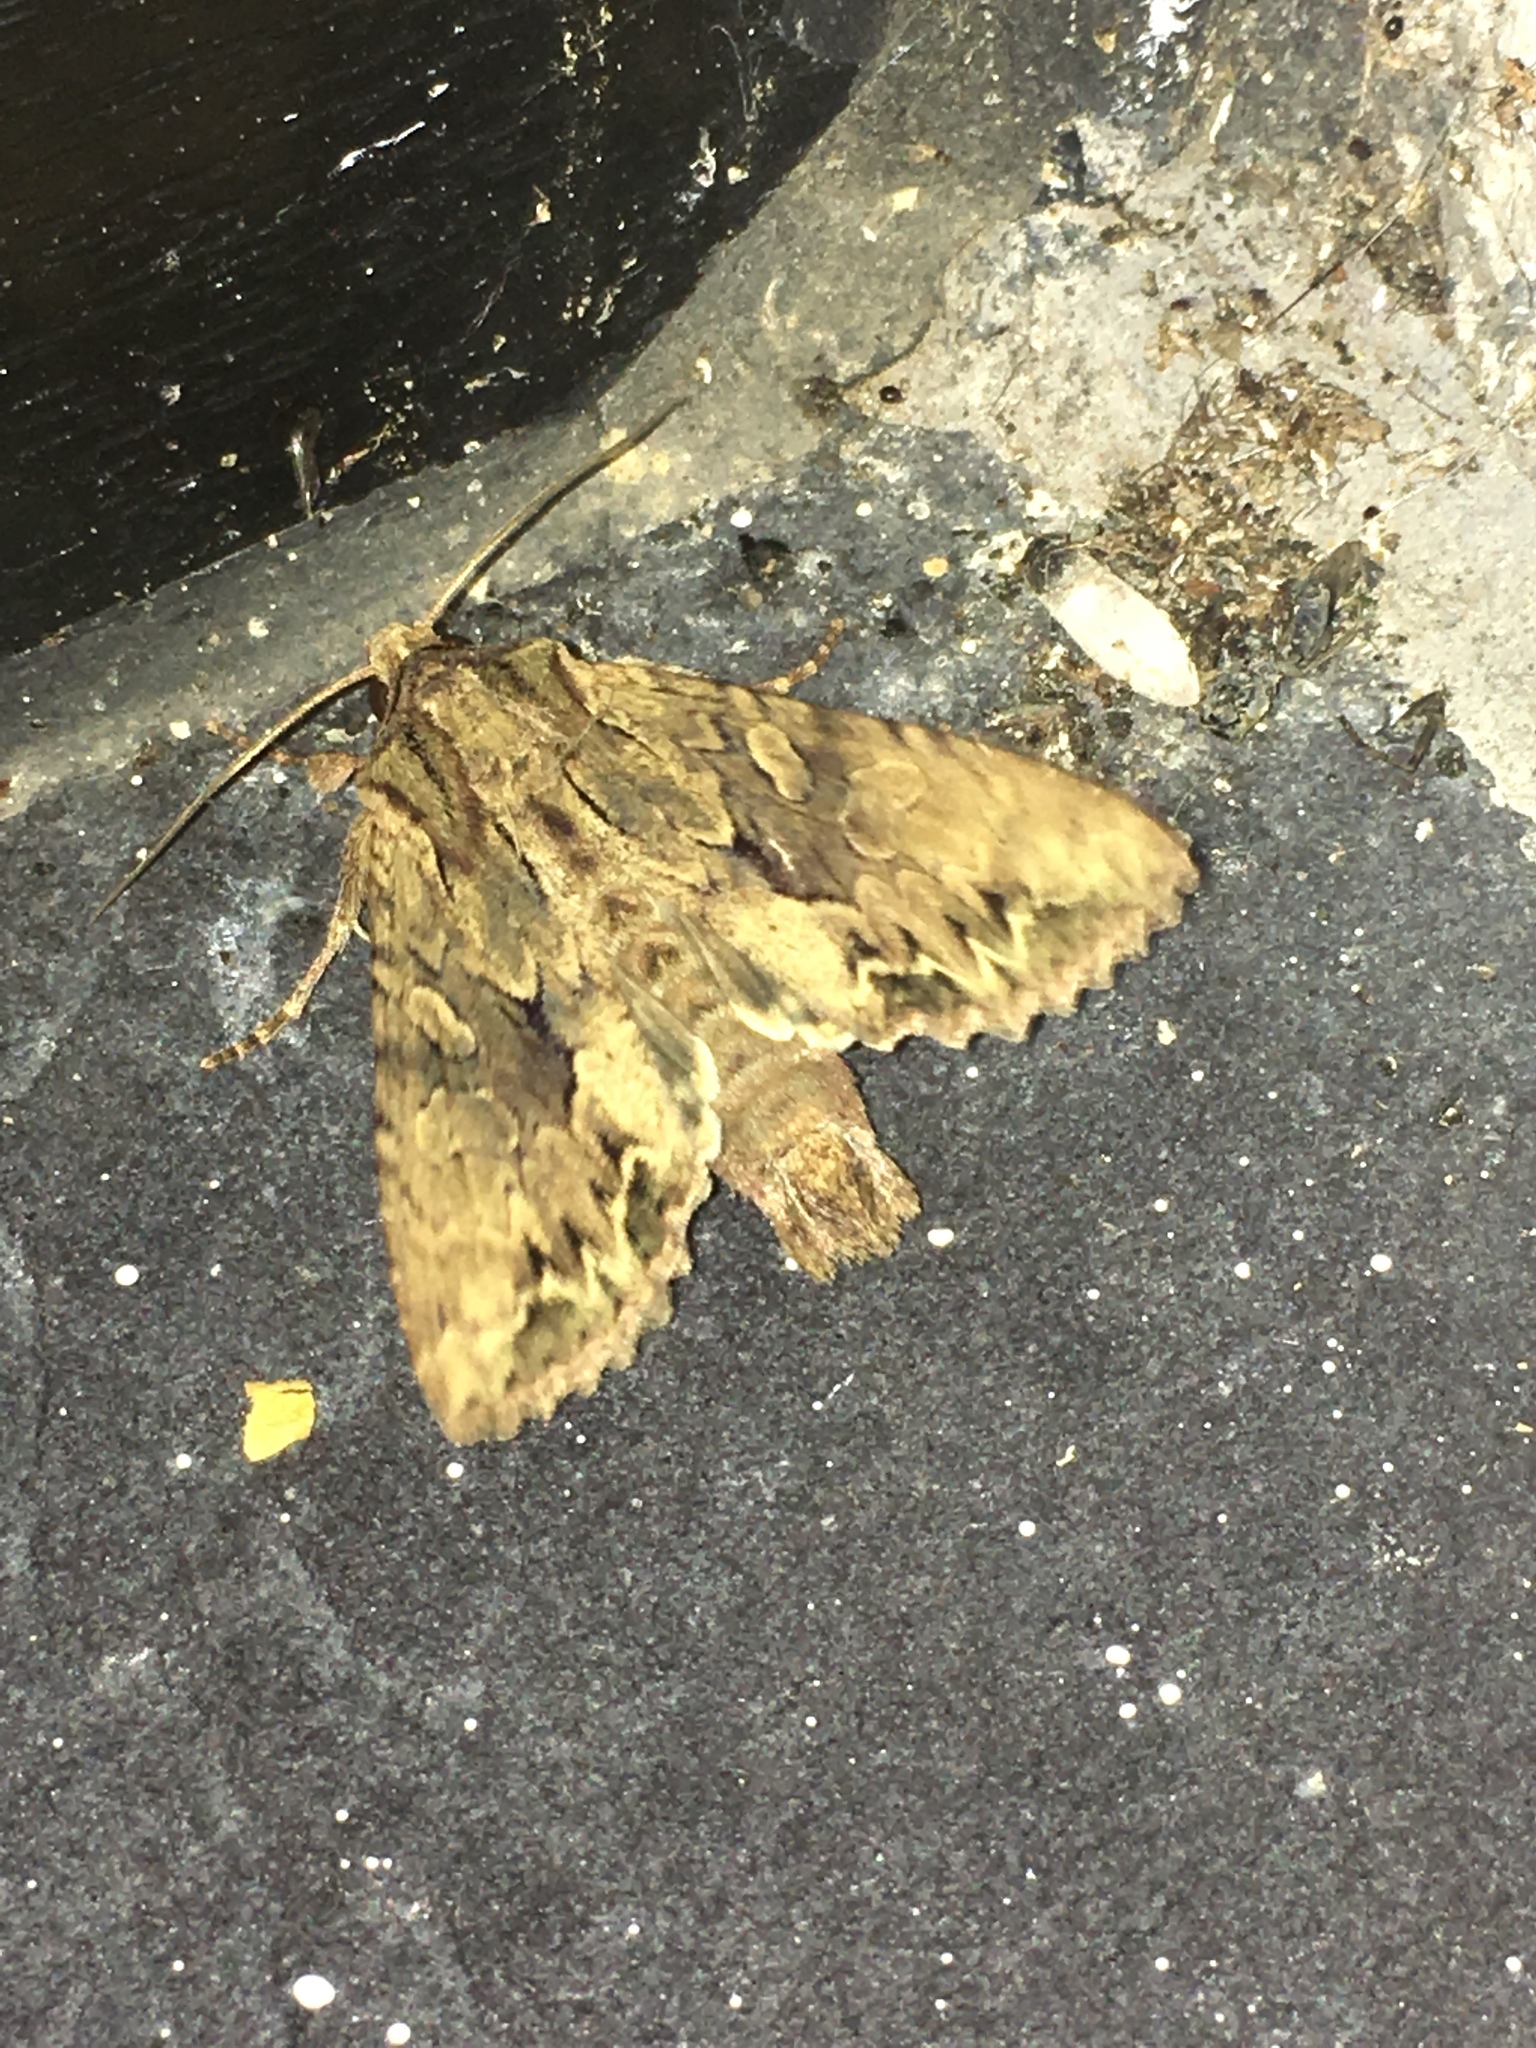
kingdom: Animalia
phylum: Arthropoda
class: Insecta
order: Lepidoptera
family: Noctuidae
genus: Apamea
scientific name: Apamea monoglypha
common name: Dark arches
